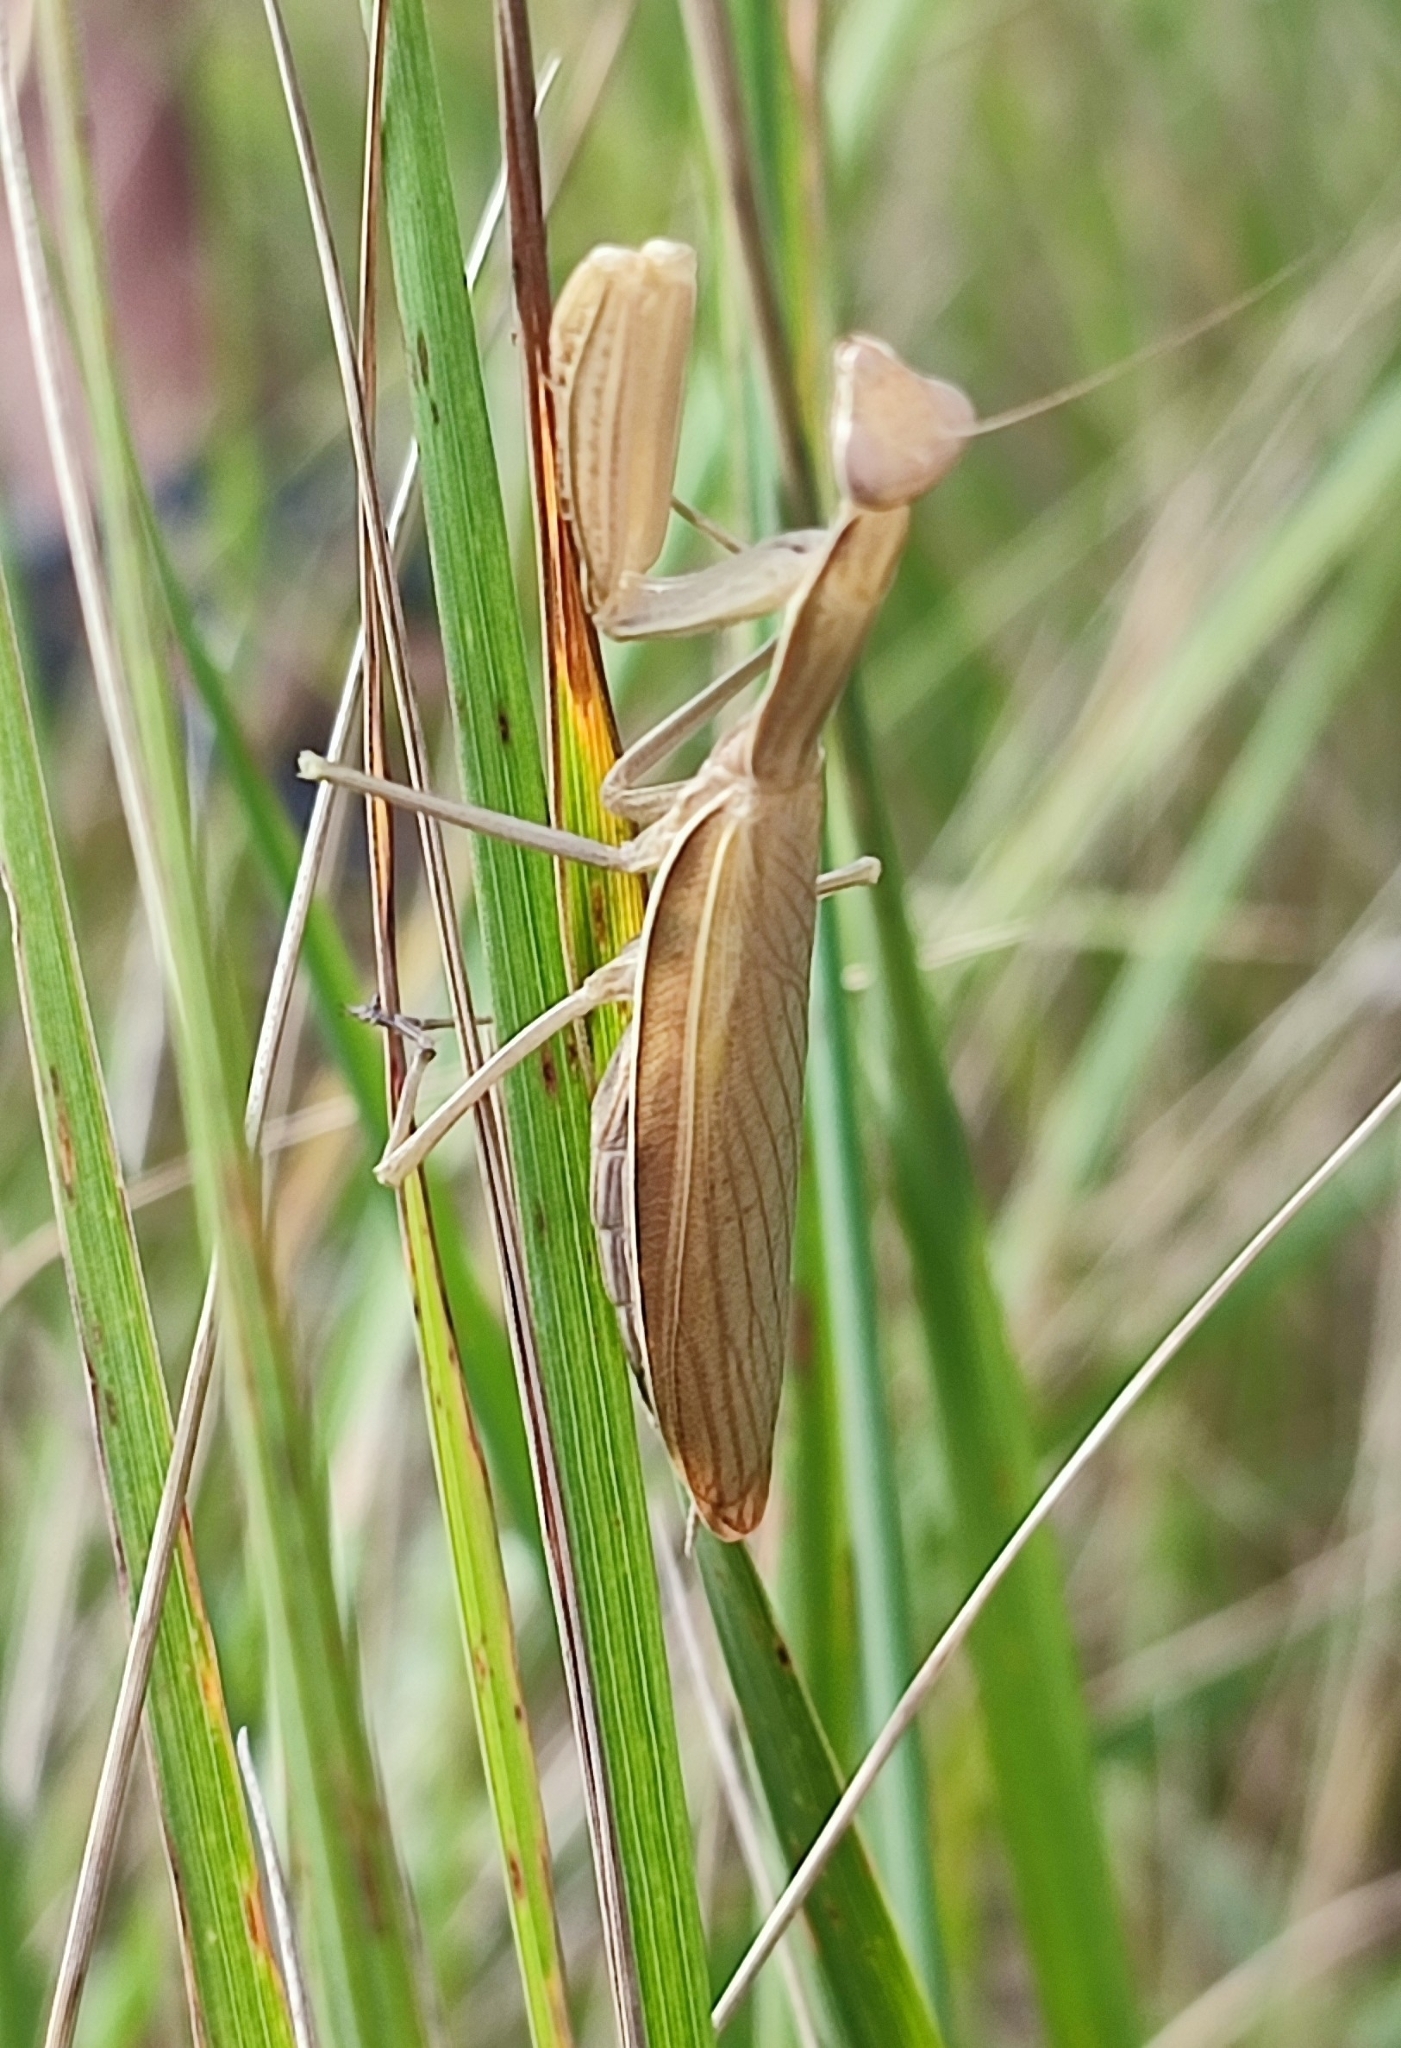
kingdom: Animalia
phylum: Arthropoda
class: Insecta
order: Mantodea
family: Mantidae
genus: Mantis
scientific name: Mantis religiosa
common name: Praying mantis
